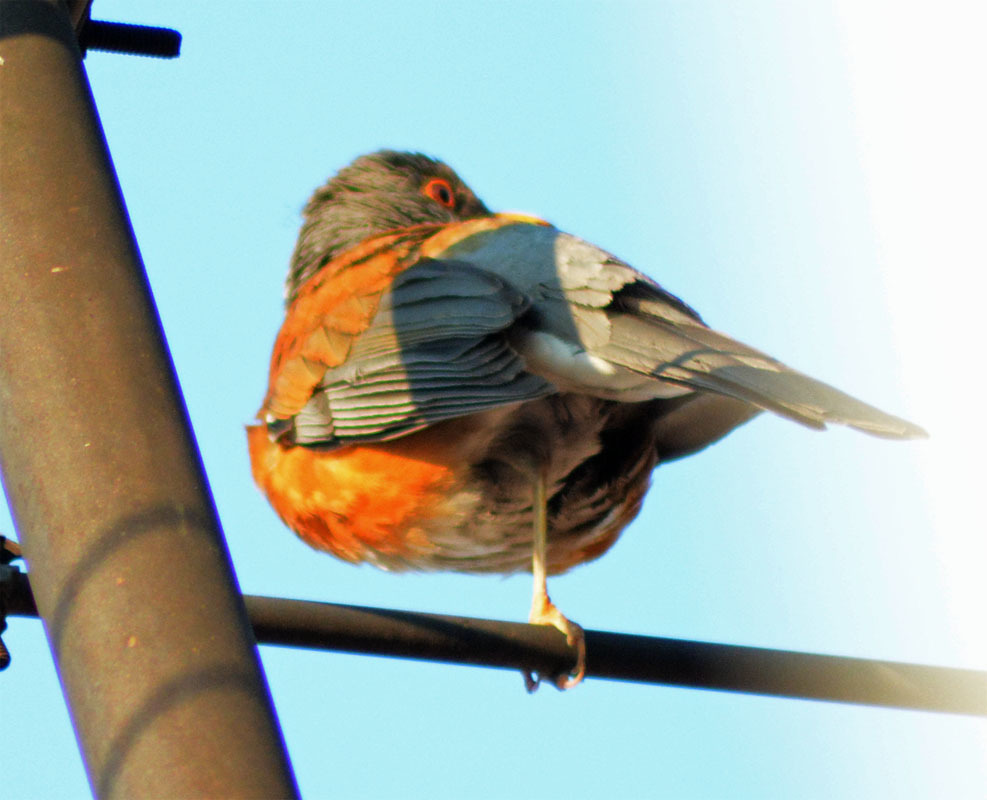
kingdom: Animalia
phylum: Chordata
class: Aves
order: Passeriformes
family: Turdidae
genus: Turdus
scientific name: Turdus rufopalliatus
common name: Rufous-backed robin
